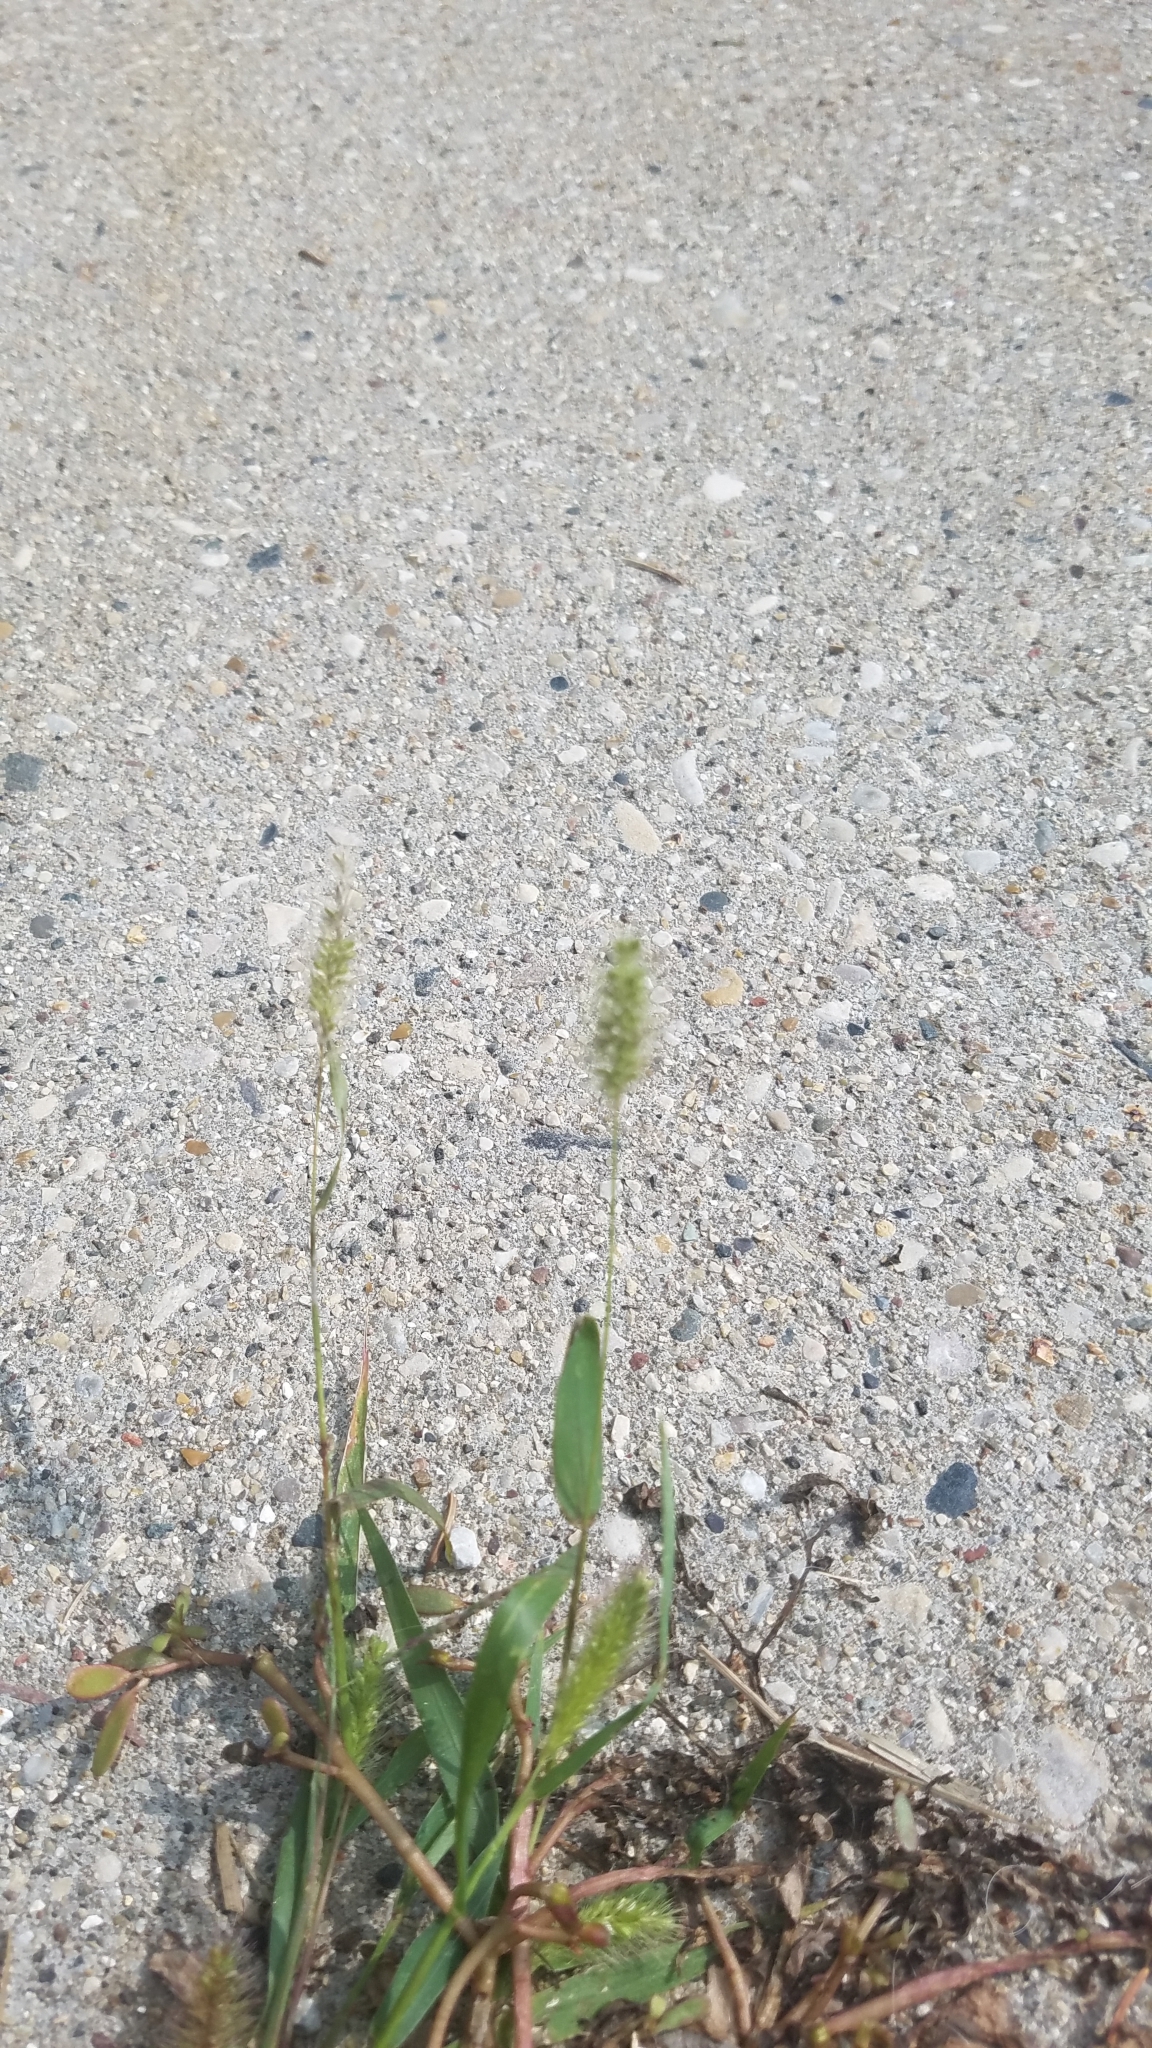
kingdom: Plantae
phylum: Tracheophyta
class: Liliopsida
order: Poales
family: Poaceae
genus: Setaria
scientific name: Setaria viridis
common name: Green bristlegrass
